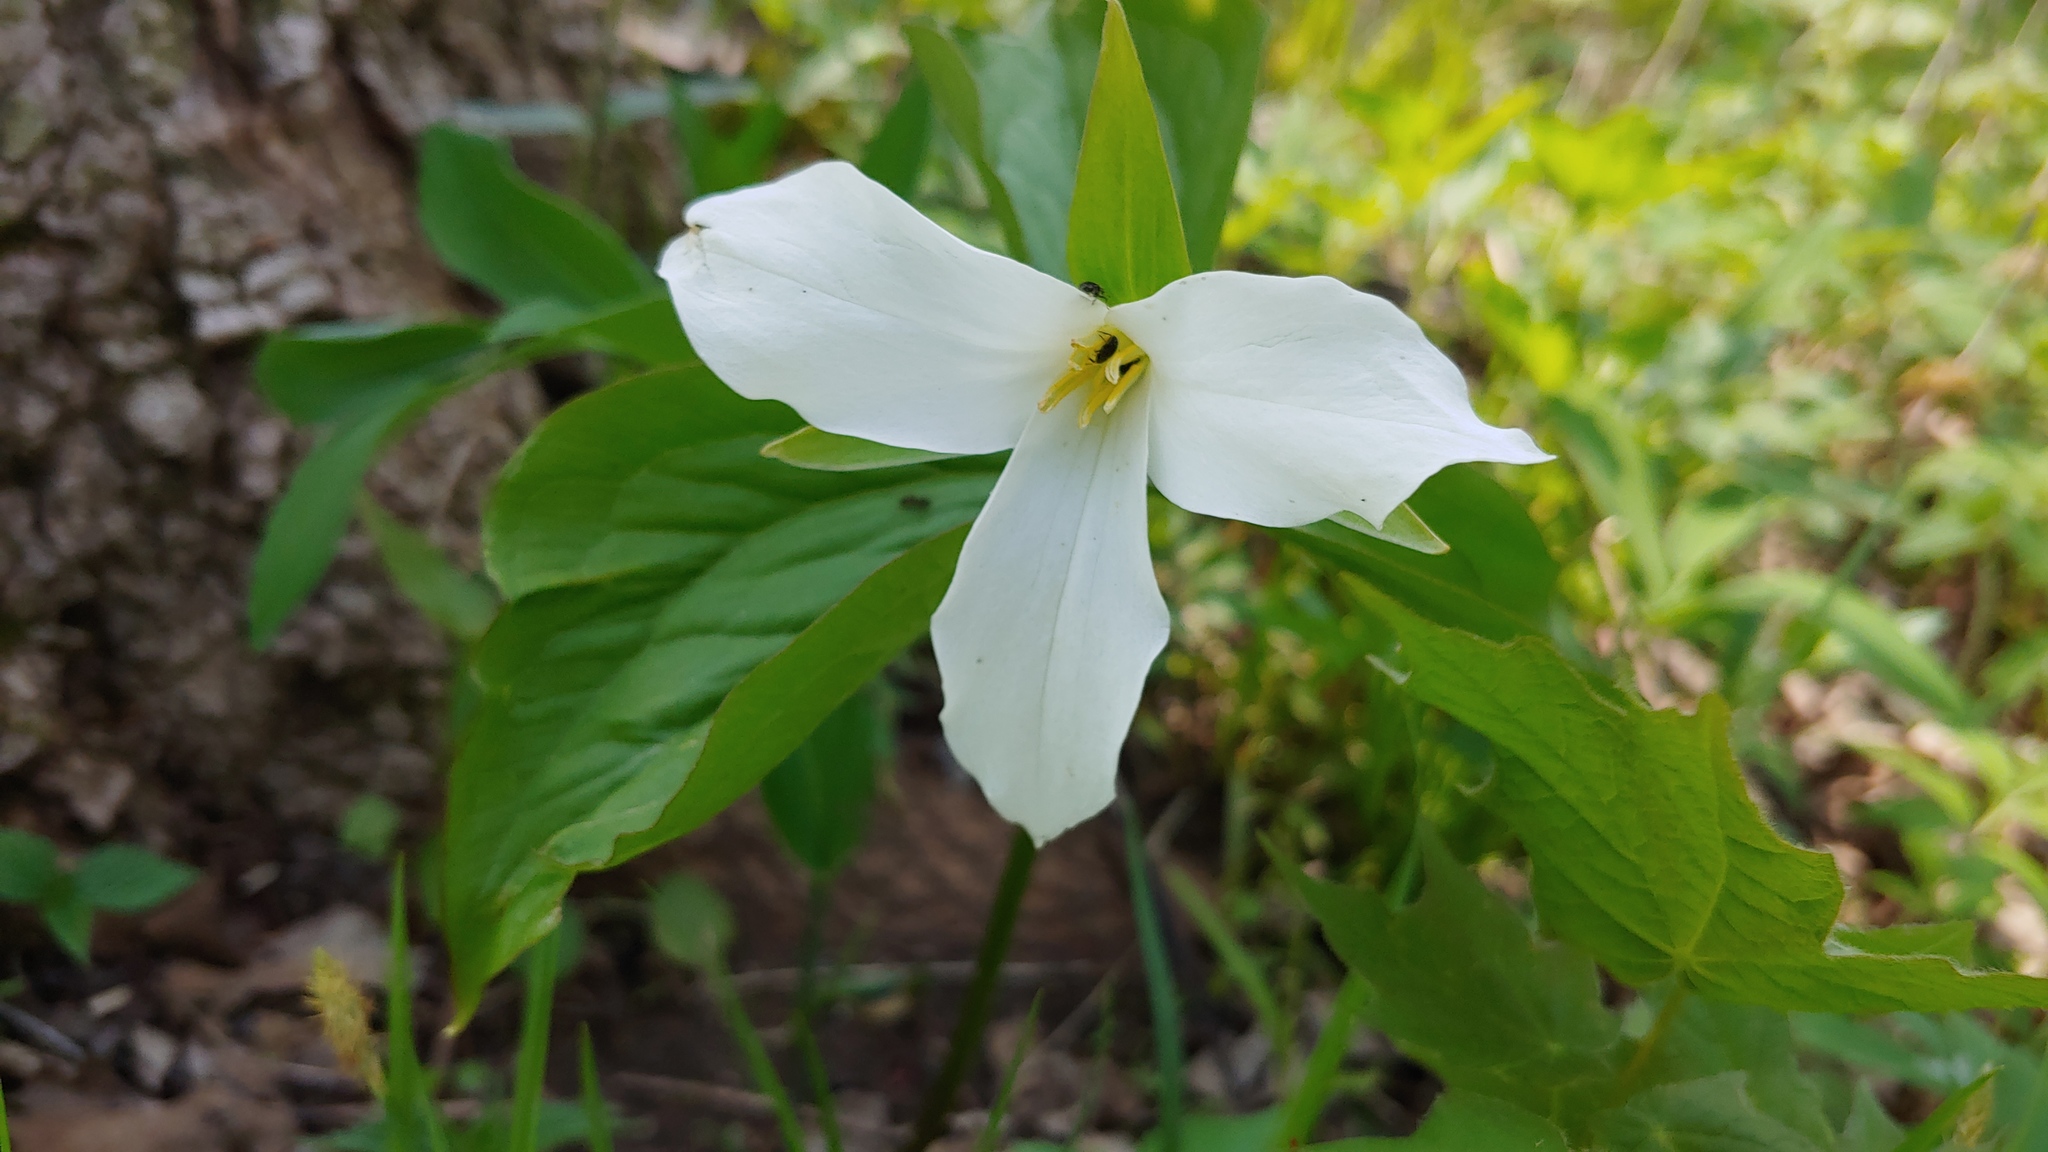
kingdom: Plantae
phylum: Tracheophyta
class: Liliopsida
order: Liliales
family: Melanthiaceae
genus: Trillium
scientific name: Trillium grandiflorum
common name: Great white trillium
